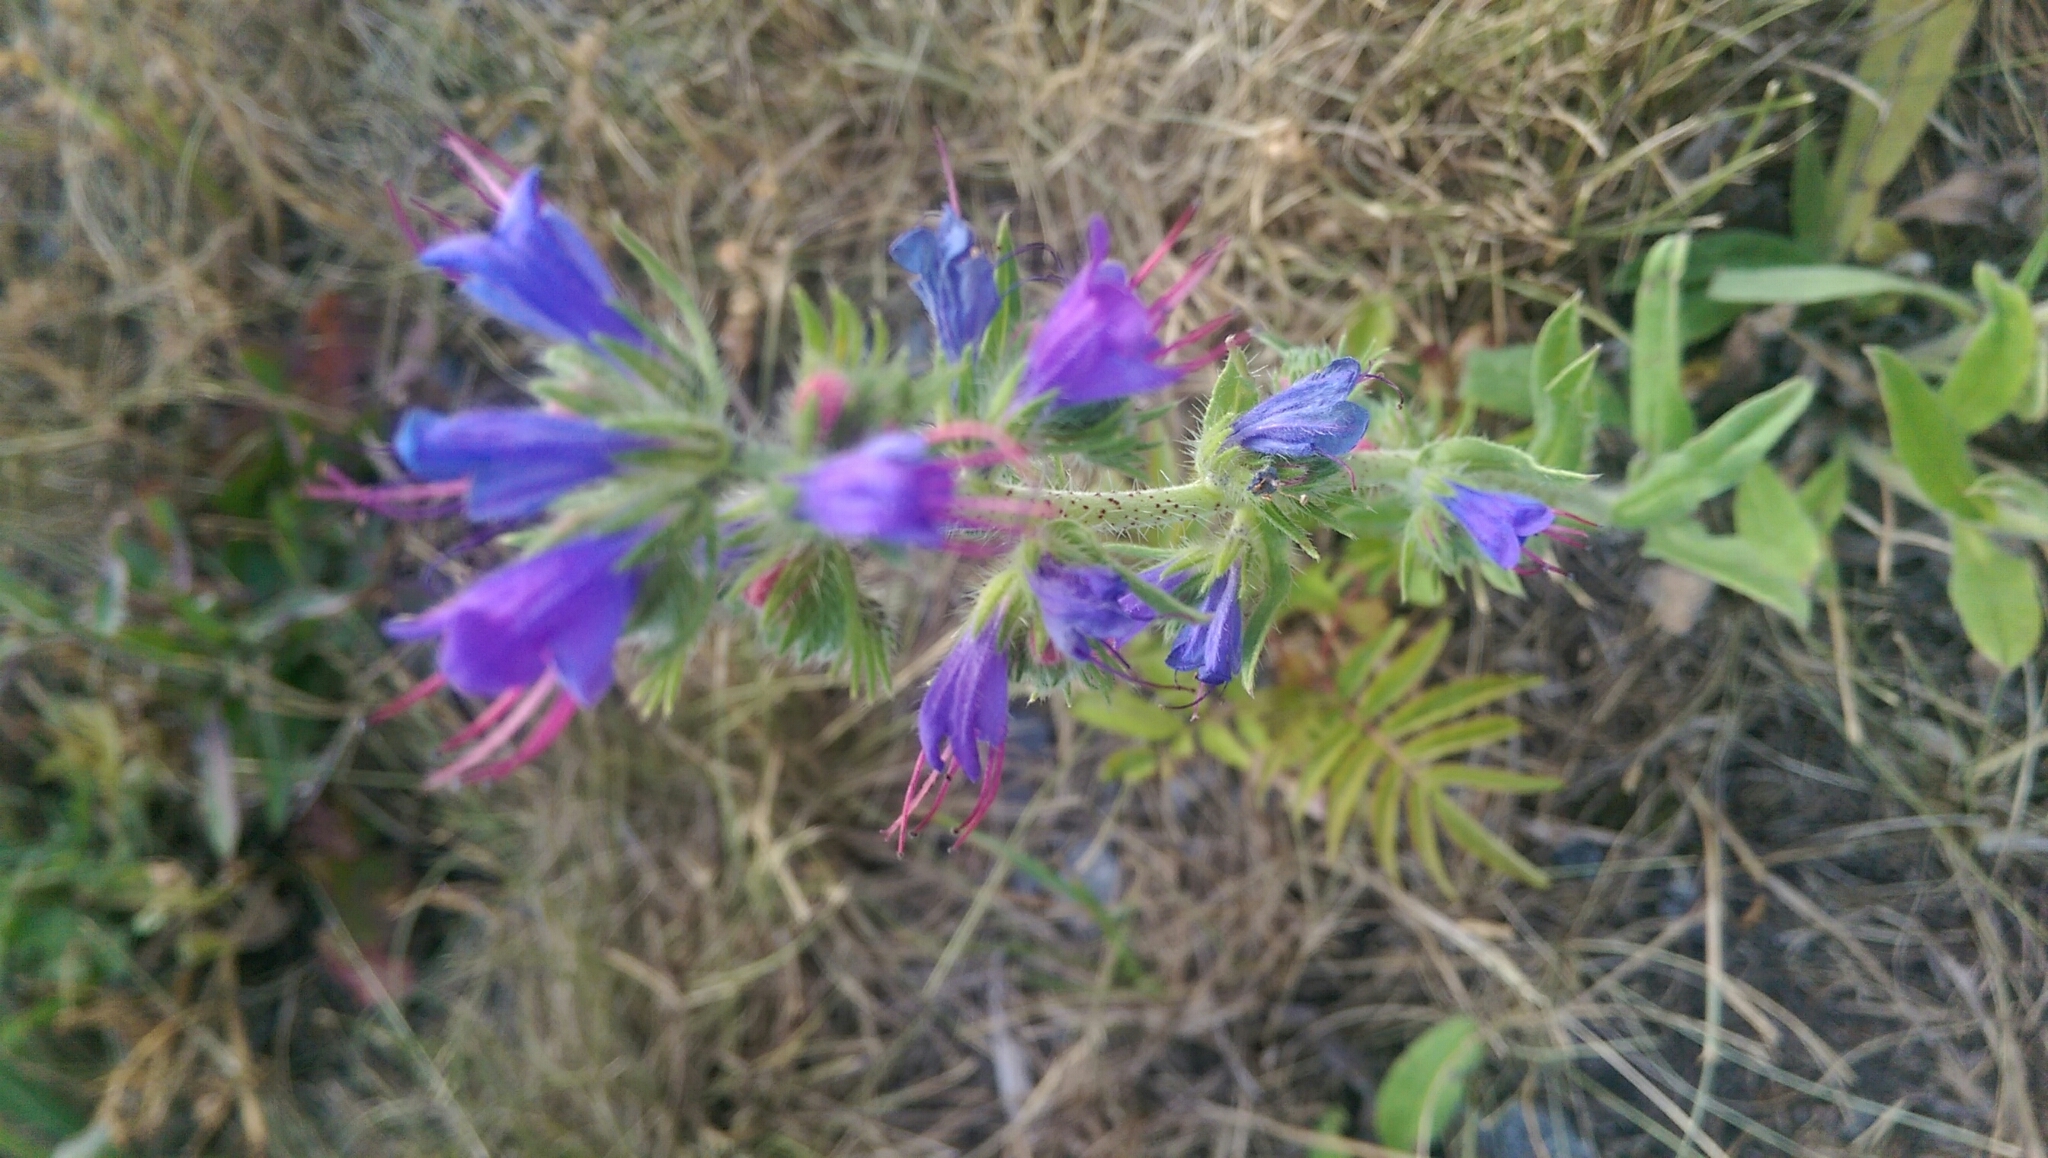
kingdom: Plantae
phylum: Tracheophyta
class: Magnoliopsida
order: Boraginales
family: Boraginaceae
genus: Echium
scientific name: Echium vulgare
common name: Common viper's bugloss
